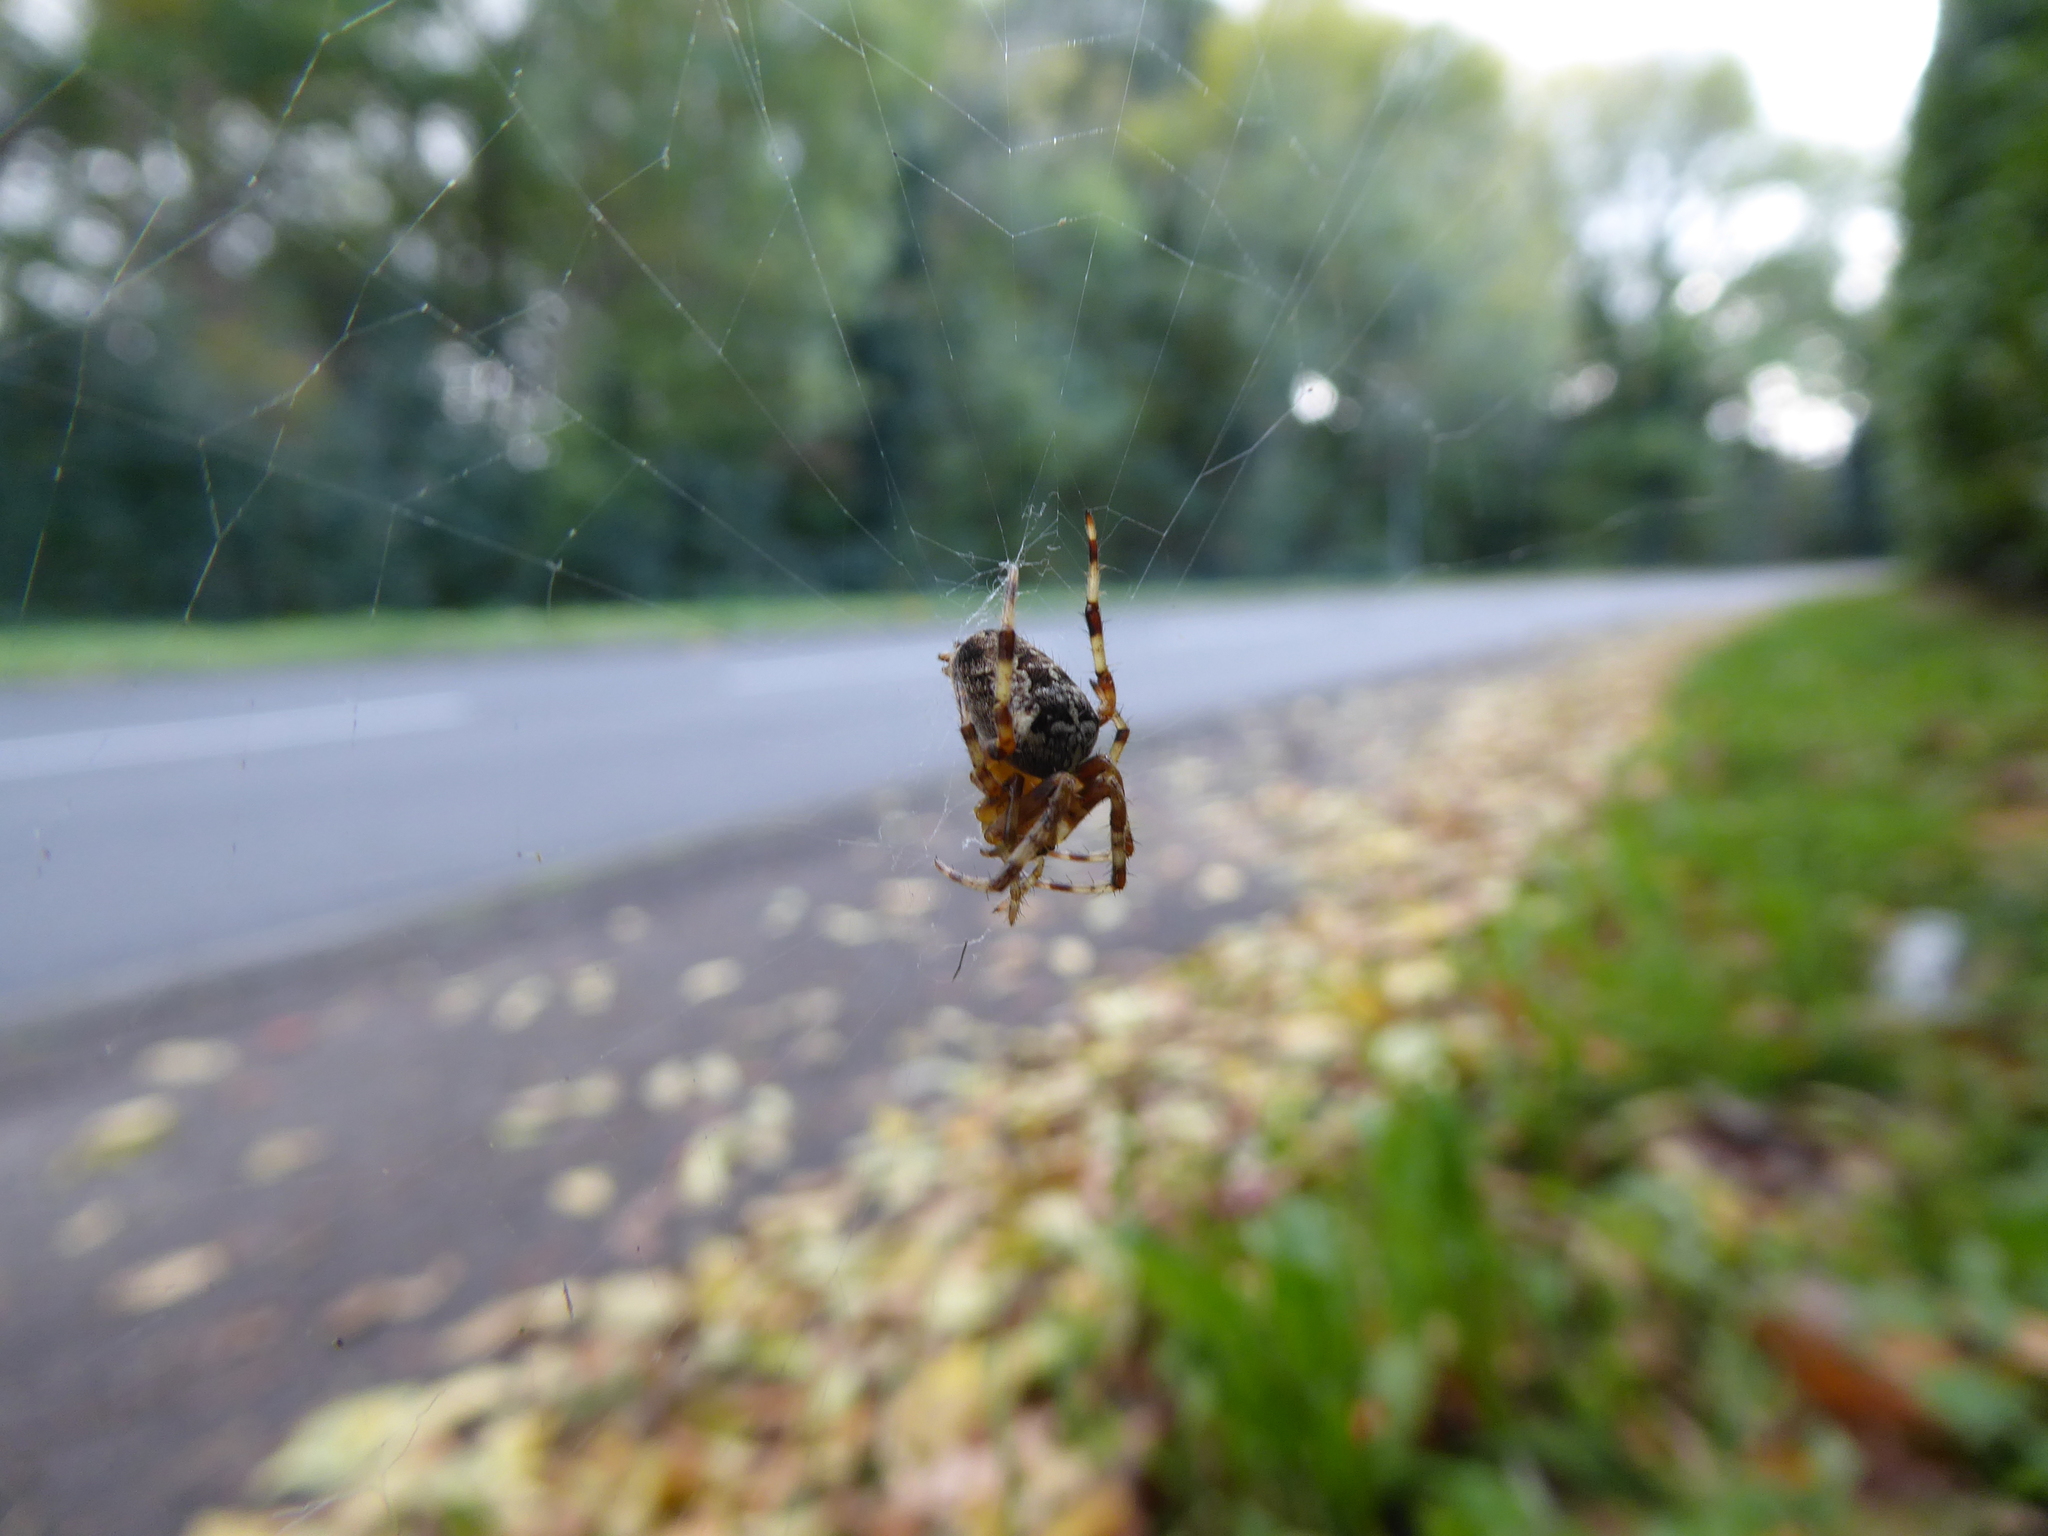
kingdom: Animalia
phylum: Arthropoda
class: Arachnida
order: Araneae
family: Araneidae
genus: Araneus
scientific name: Araneus diadematus
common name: Cross orbweaver
